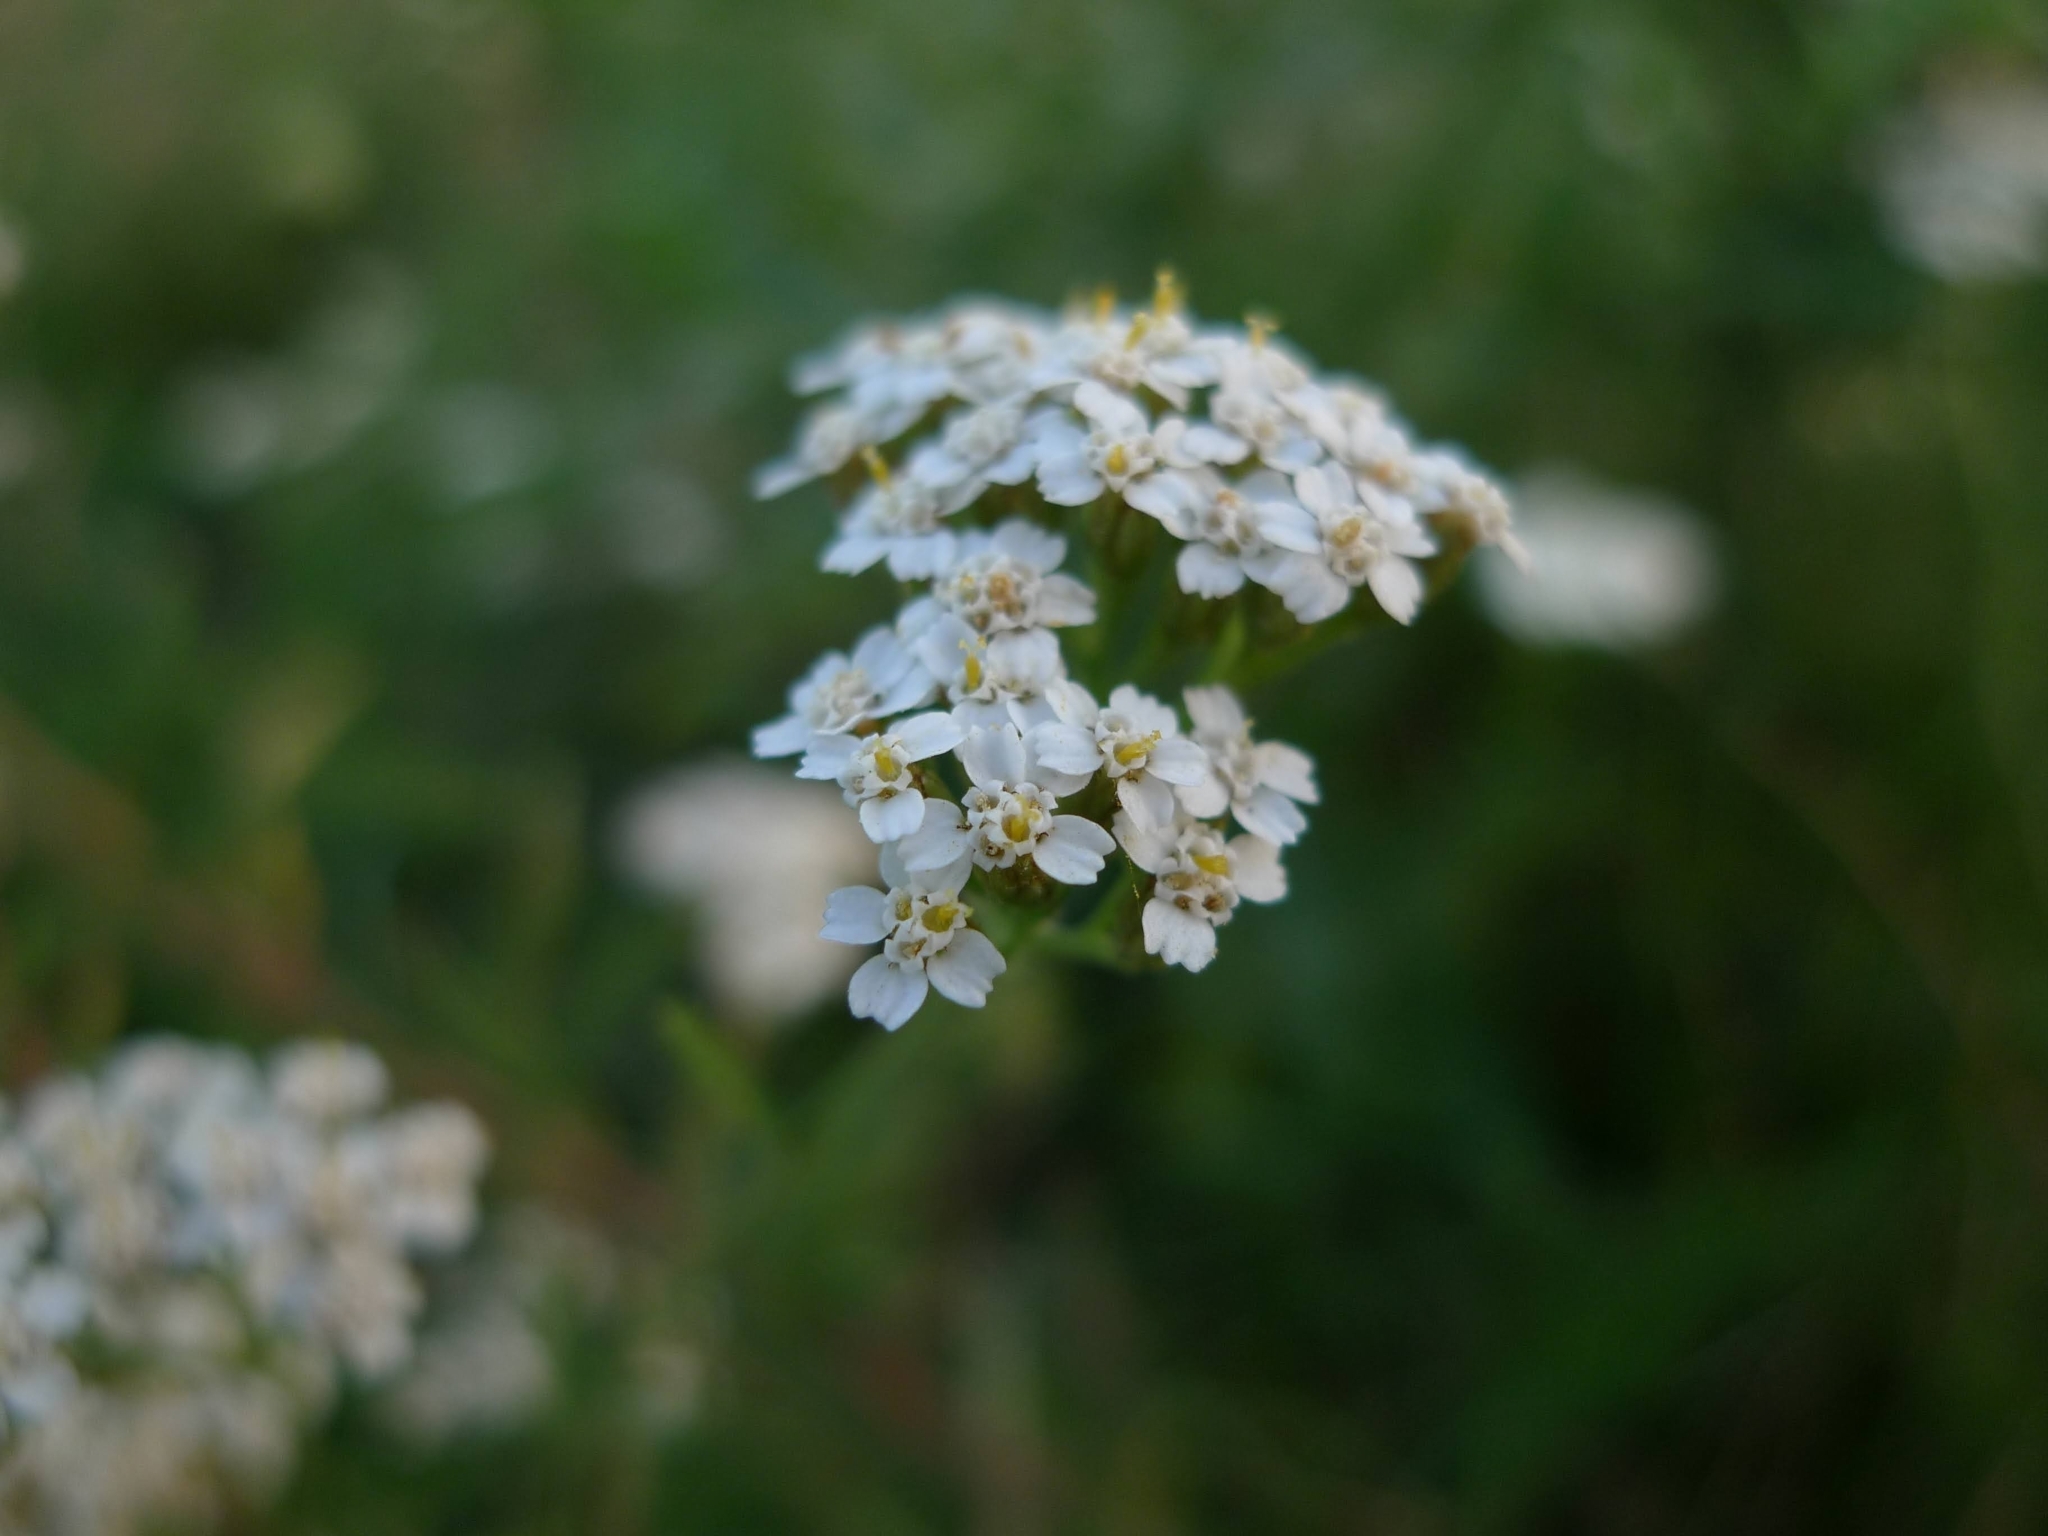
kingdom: Plantae
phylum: Tracheophyta
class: Magnoliopsida
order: Asterales
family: Asteraceae
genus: Achillea
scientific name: Achillea millefolium
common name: Yarrow
